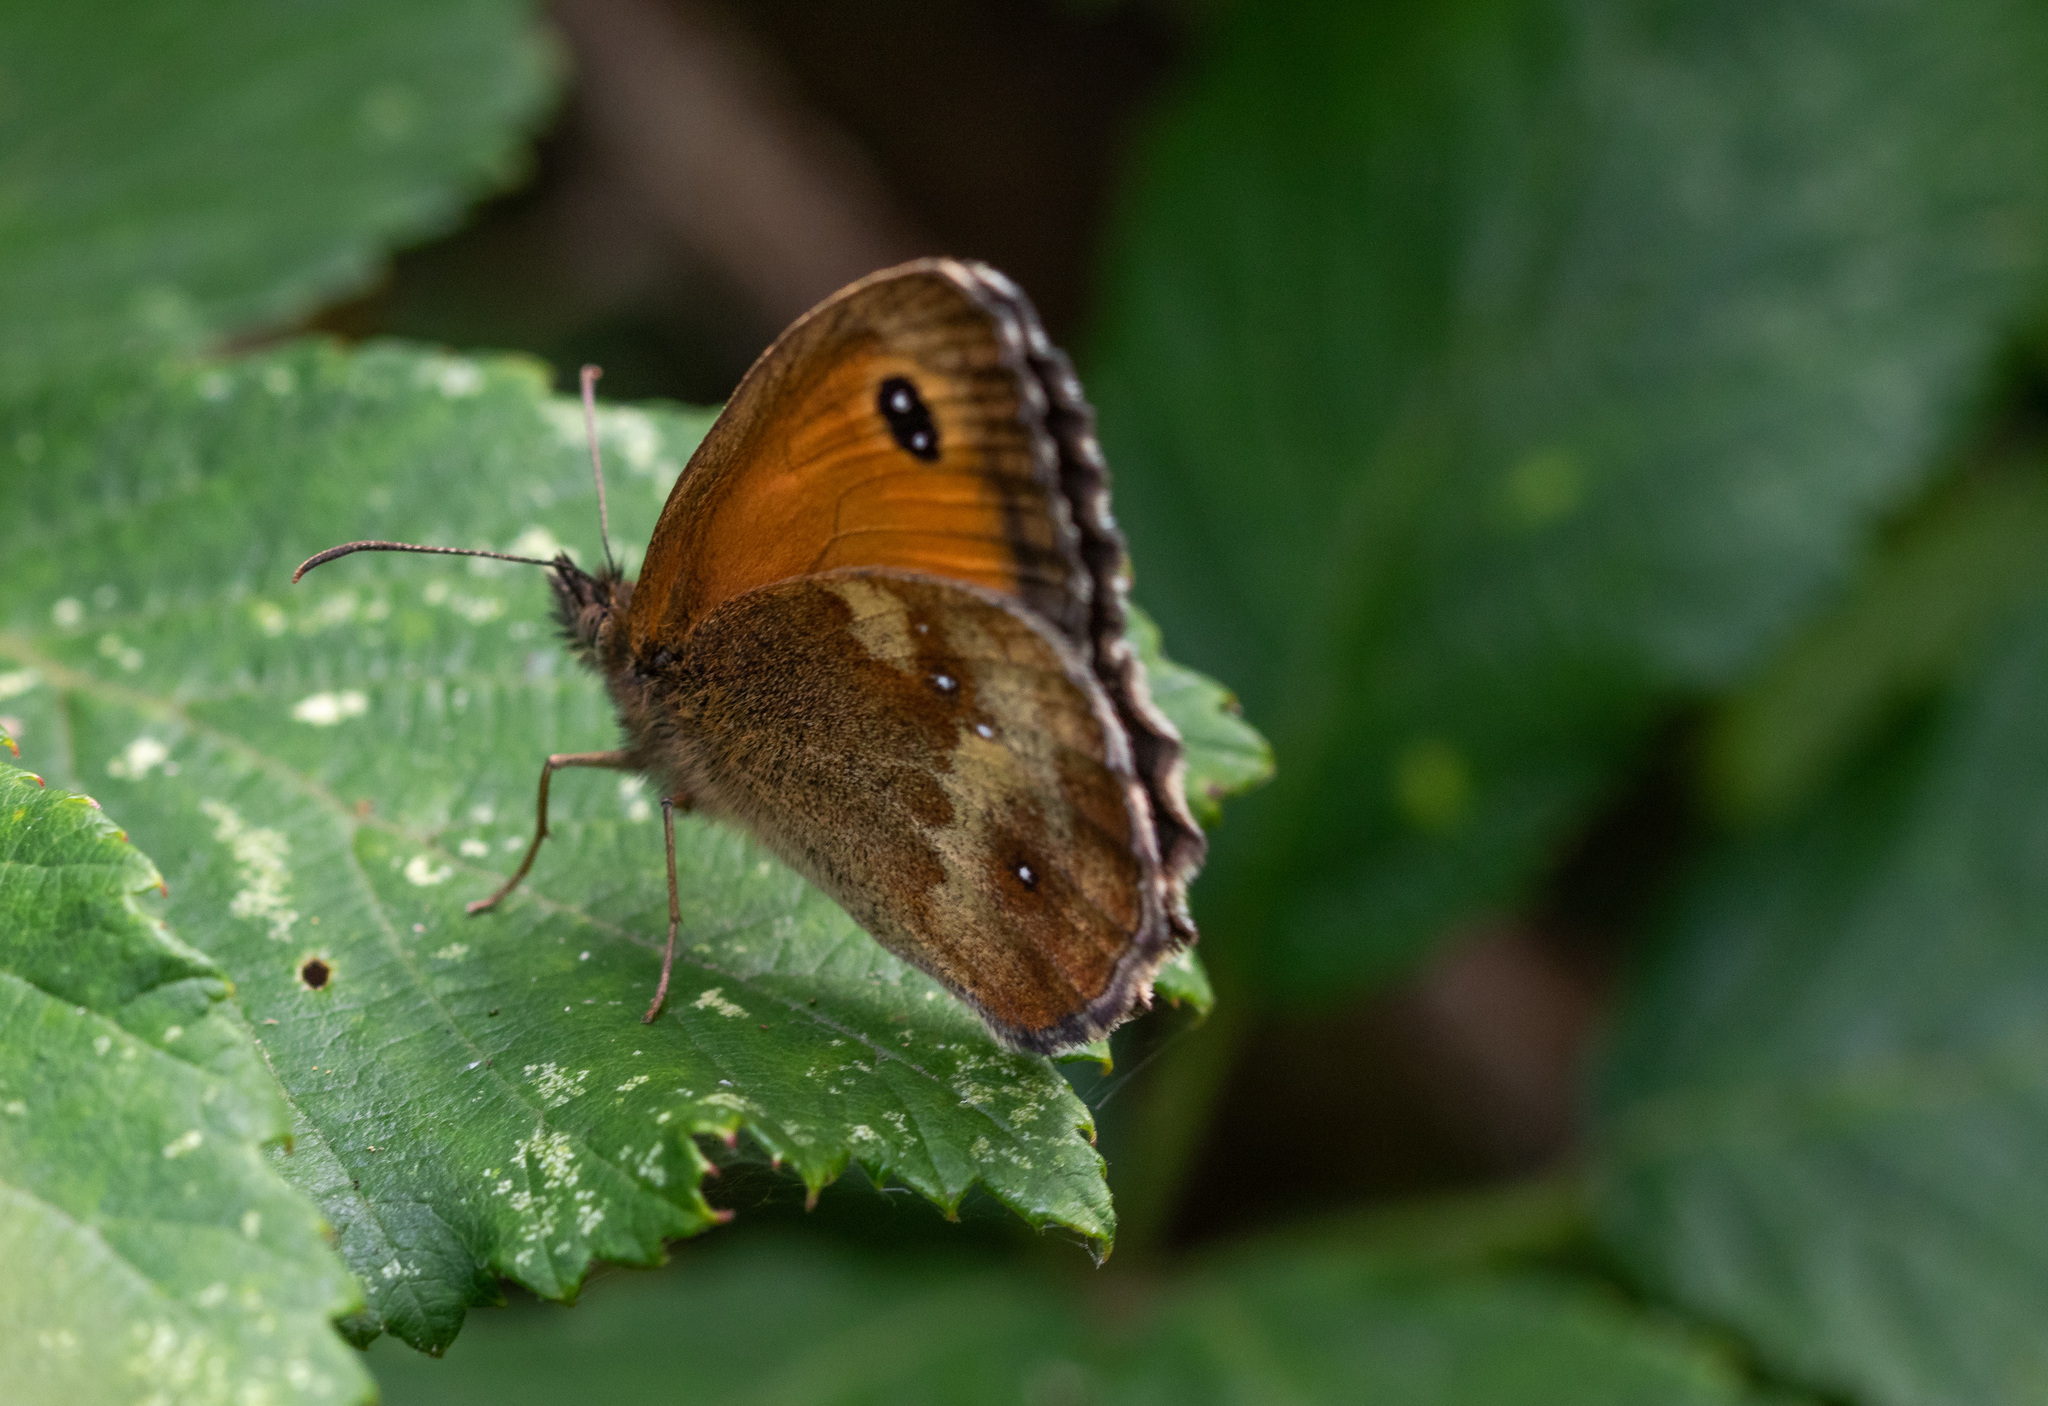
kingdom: Animalia
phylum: Arthropoda
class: Insecta
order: Lepidoptera
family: Nymphalidae
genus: Pyronia
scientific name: Pyronia tithonus
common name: Gatekeeper
